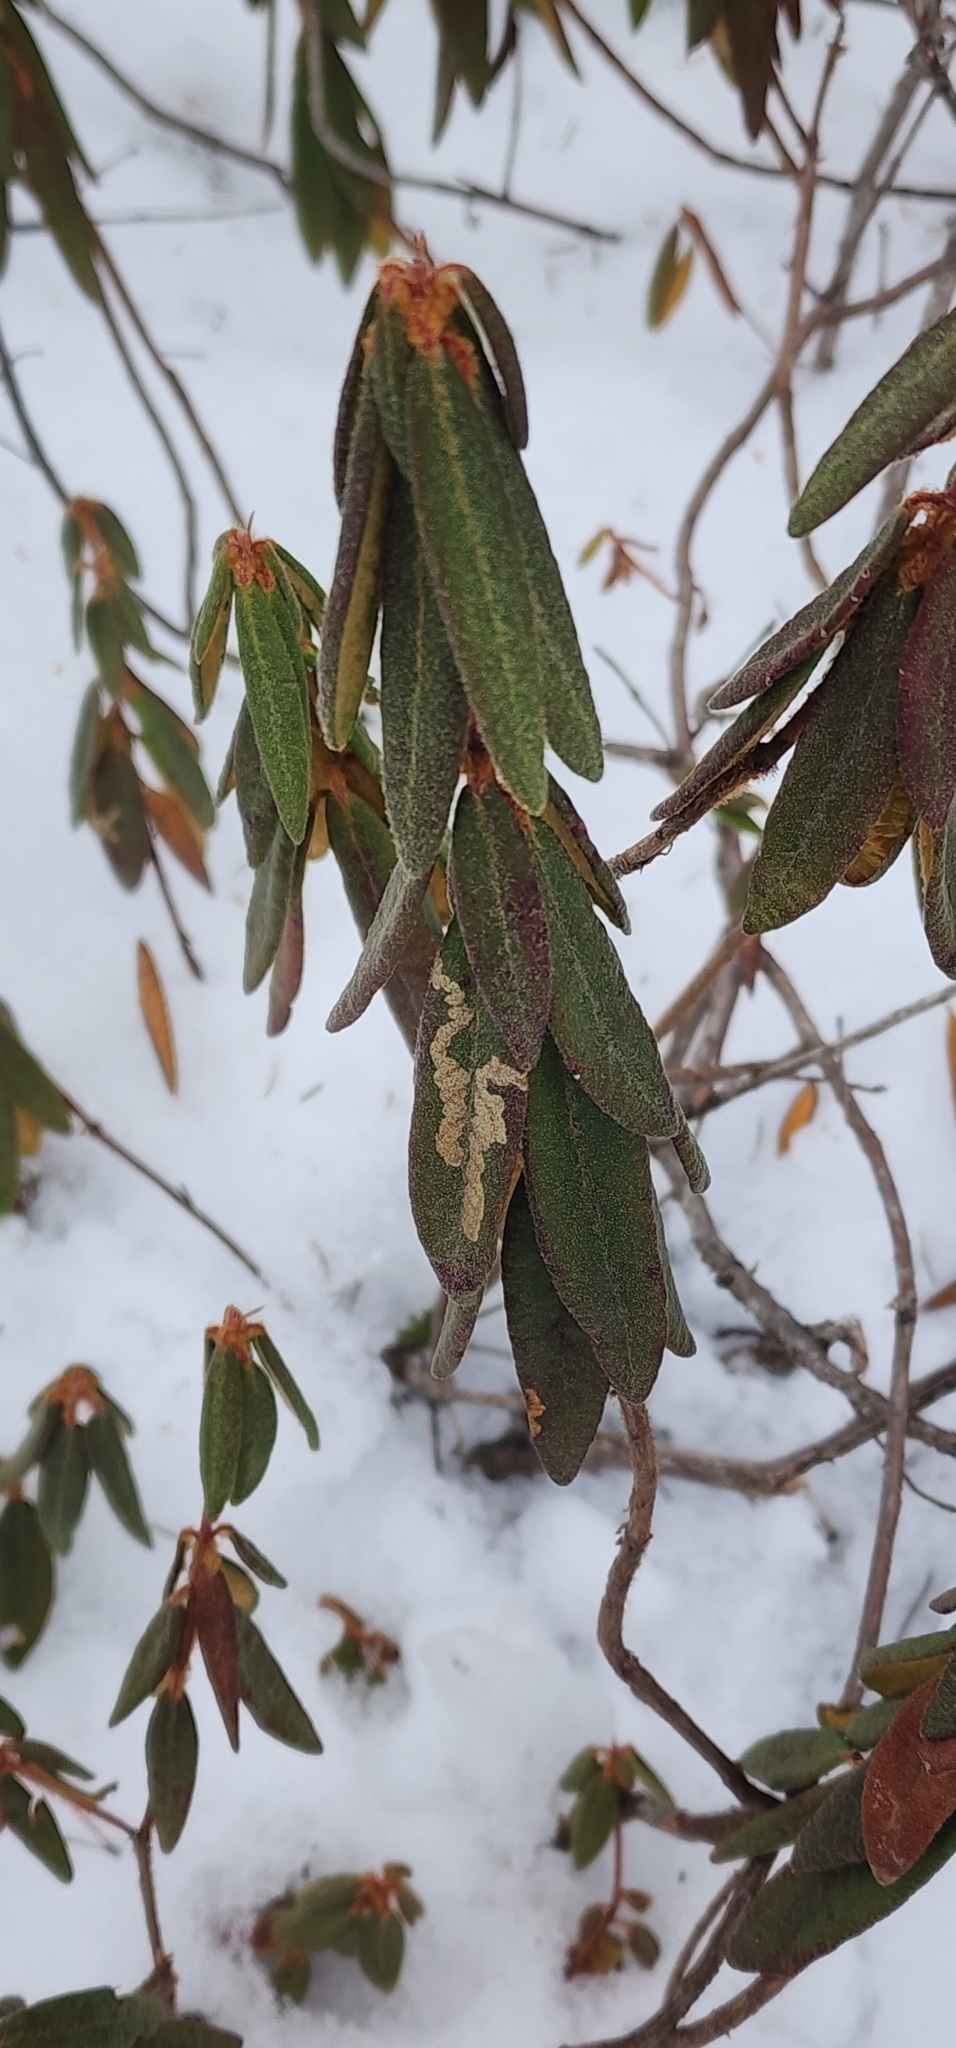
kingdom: Plantae
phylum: Tracheophyta
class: Magnoliopsida
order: Ericales
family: Ericaceae
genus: Rhododendron
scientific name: Rhododendron groenlandicum
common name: Bog labrador tea
